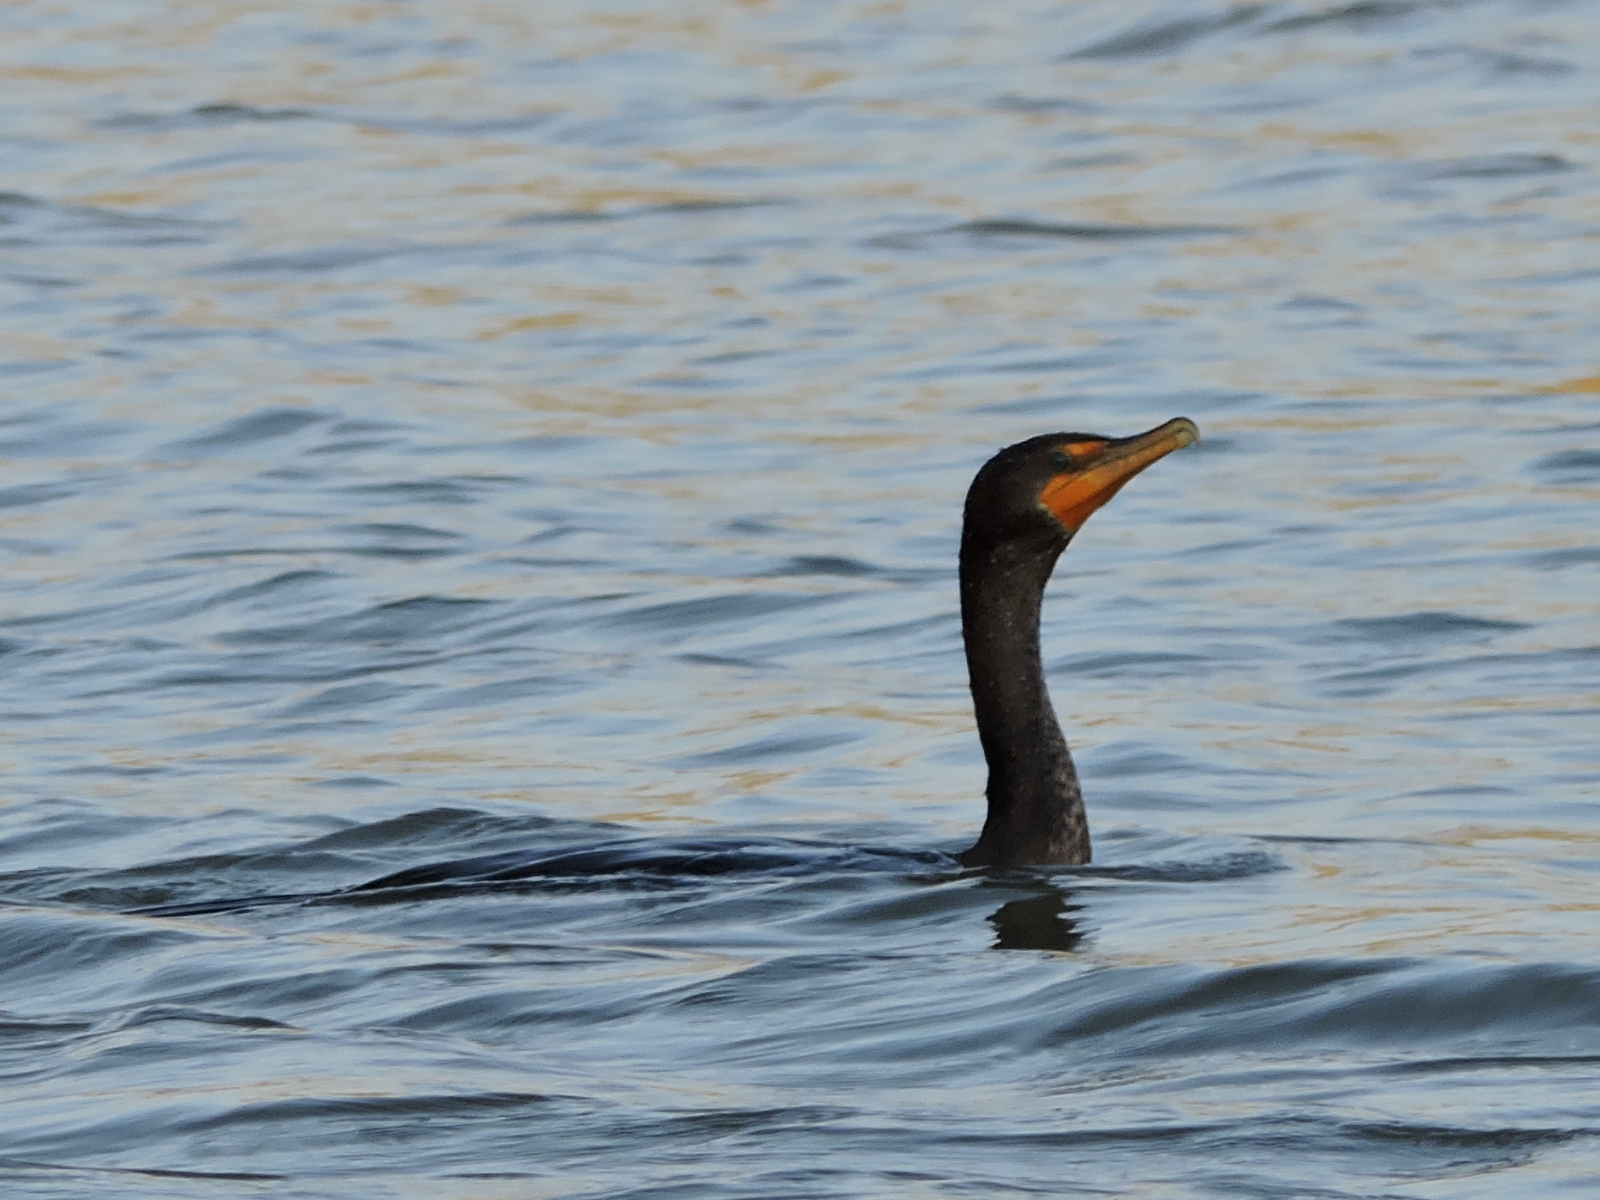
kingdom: Animalia
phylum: Chordata
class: Aves
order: Suliformes
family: Phalacrocoracidae
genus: Phalacrocorax
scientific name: Phalacrocorax auritus
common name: Double-crested cormorant
